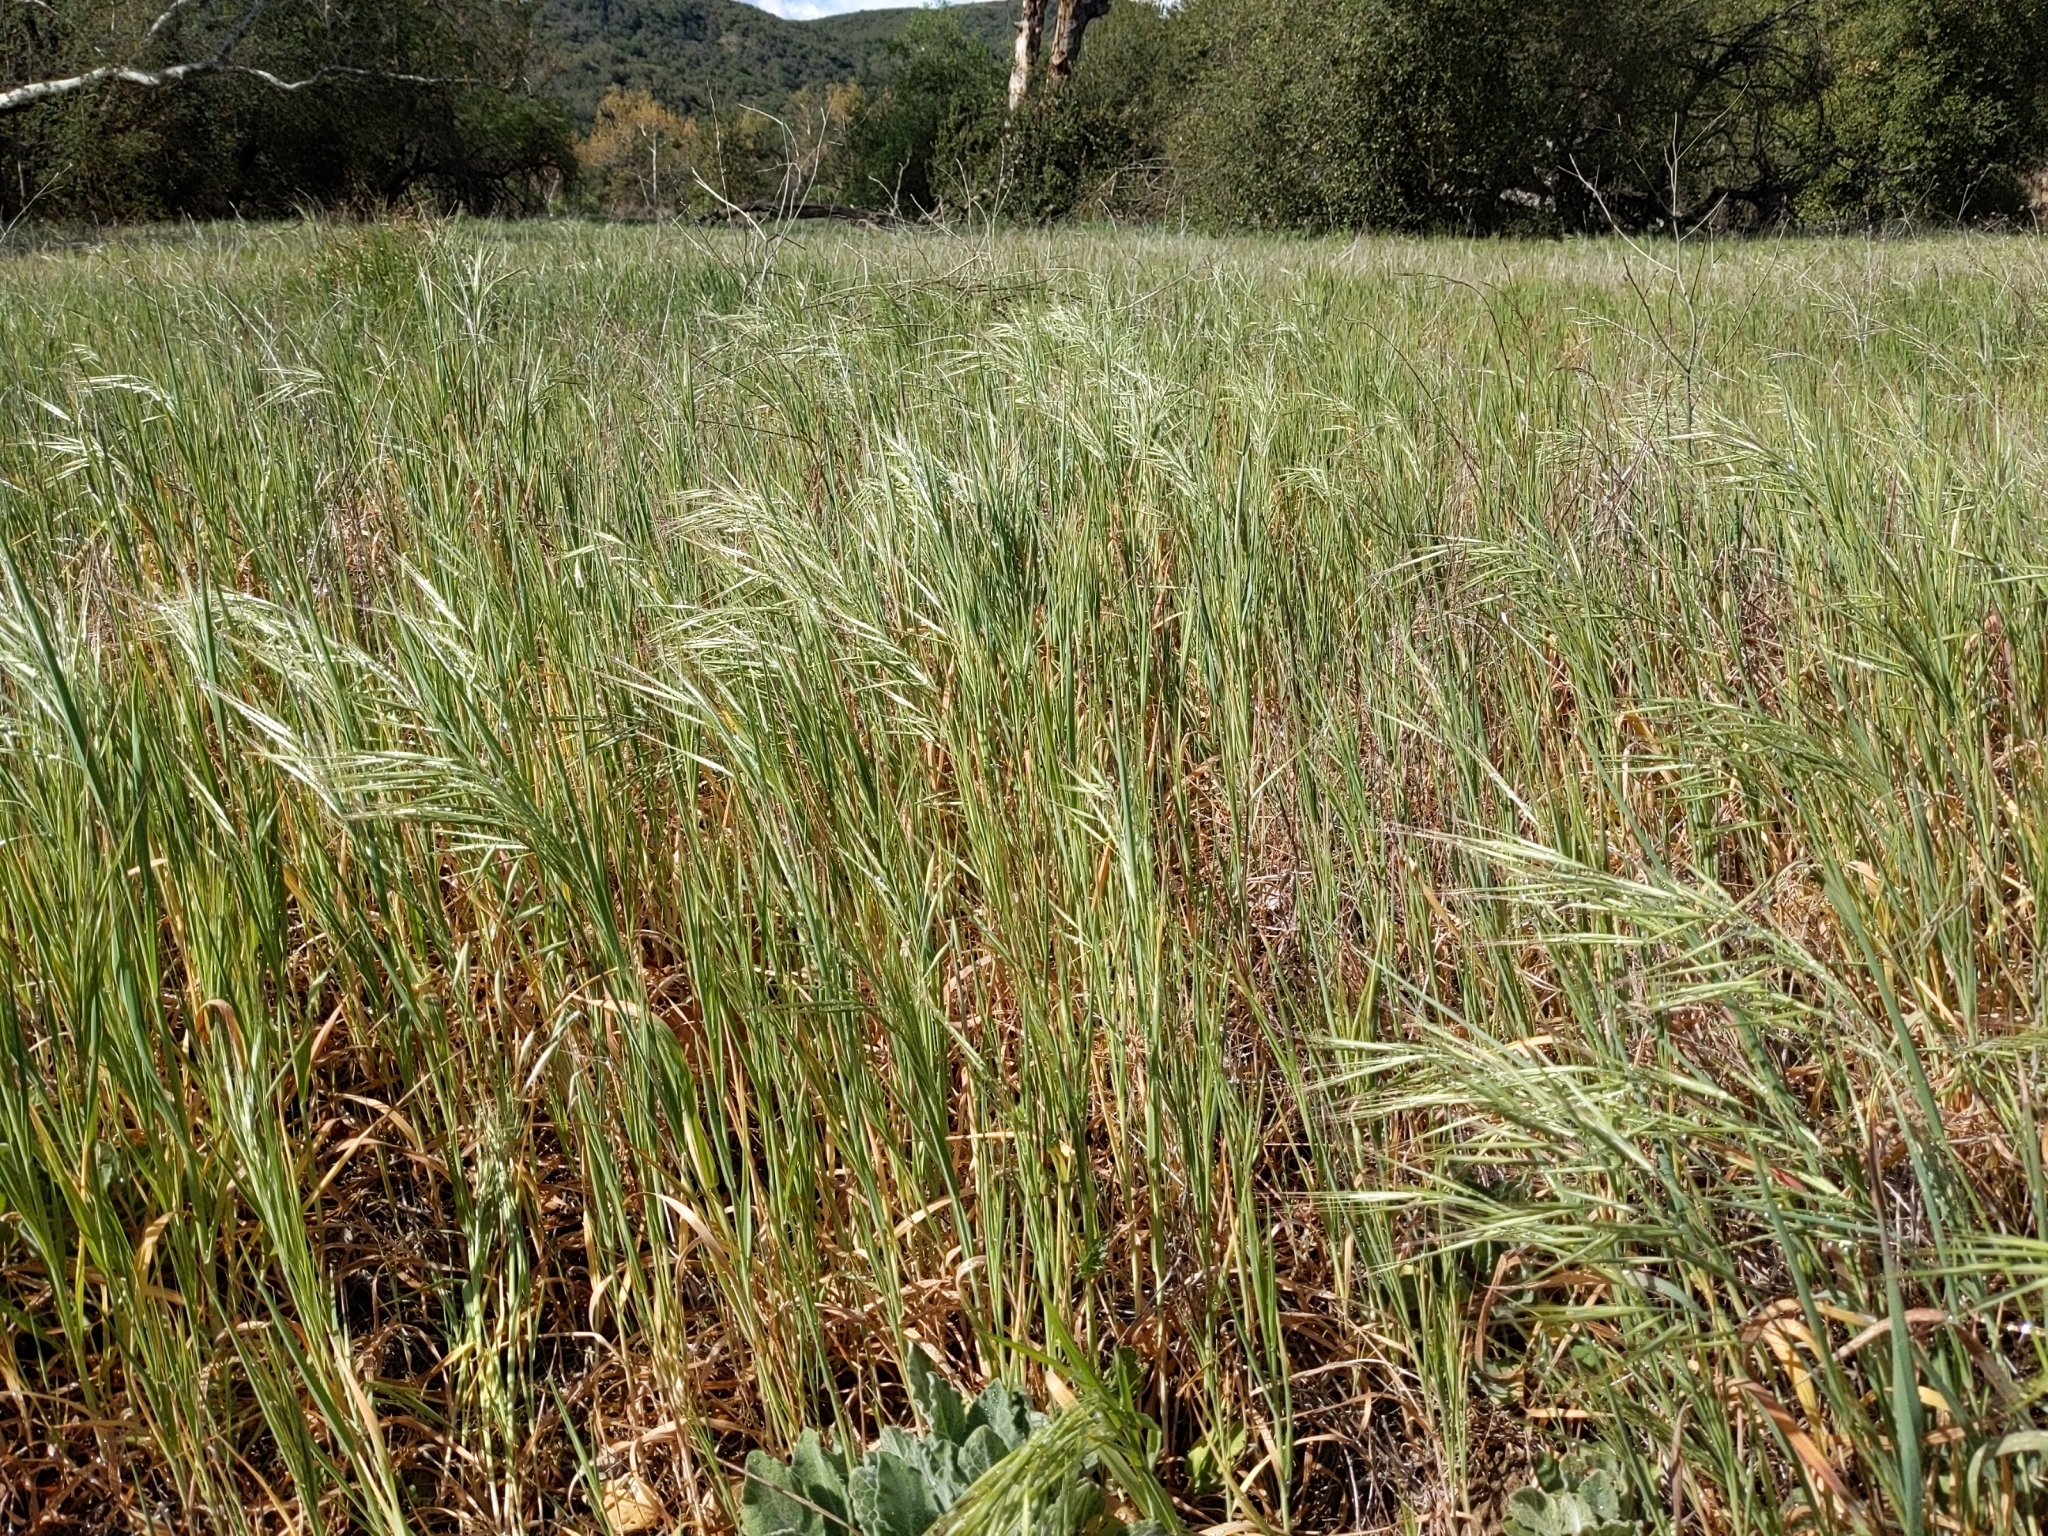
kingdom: Plantae
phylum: Tracheophyta
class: Liliopsida
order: Poales
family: Poaceae
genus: Bromus
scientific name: Bromus diandrus
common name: Ripgut brome
